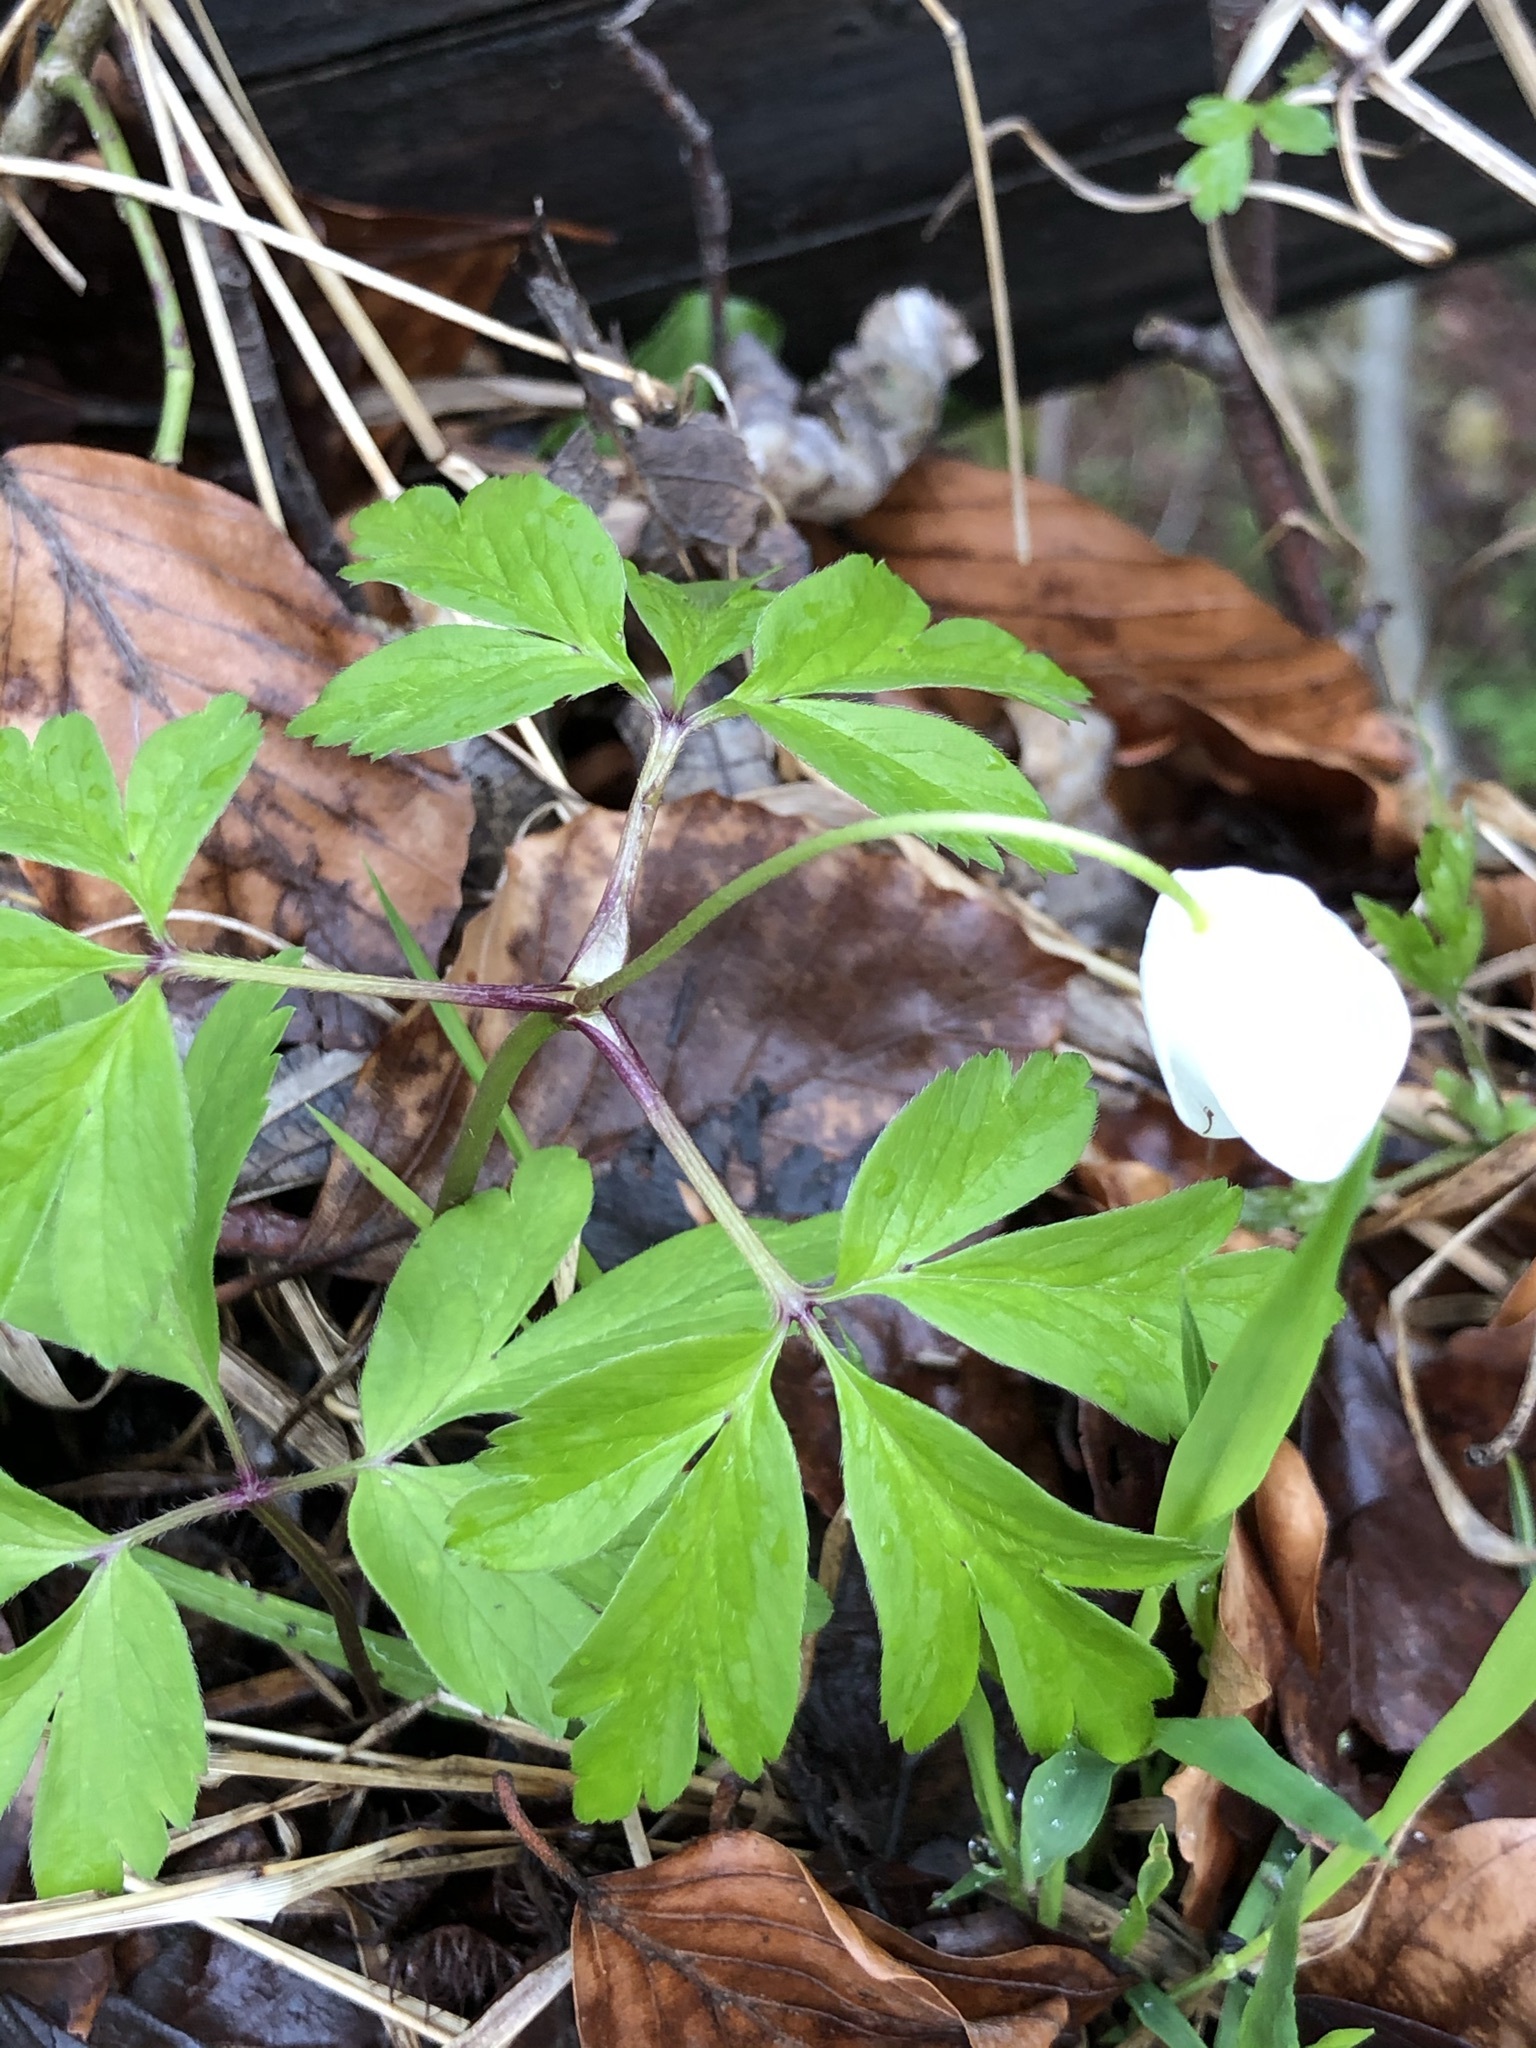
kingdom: Plantae
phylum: Tracheophyta
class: Magnoliopsida
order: Ranunculales
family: Ranunculaceae
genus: Anemone
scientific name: Anemone nemorosa
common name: Wood anemone
